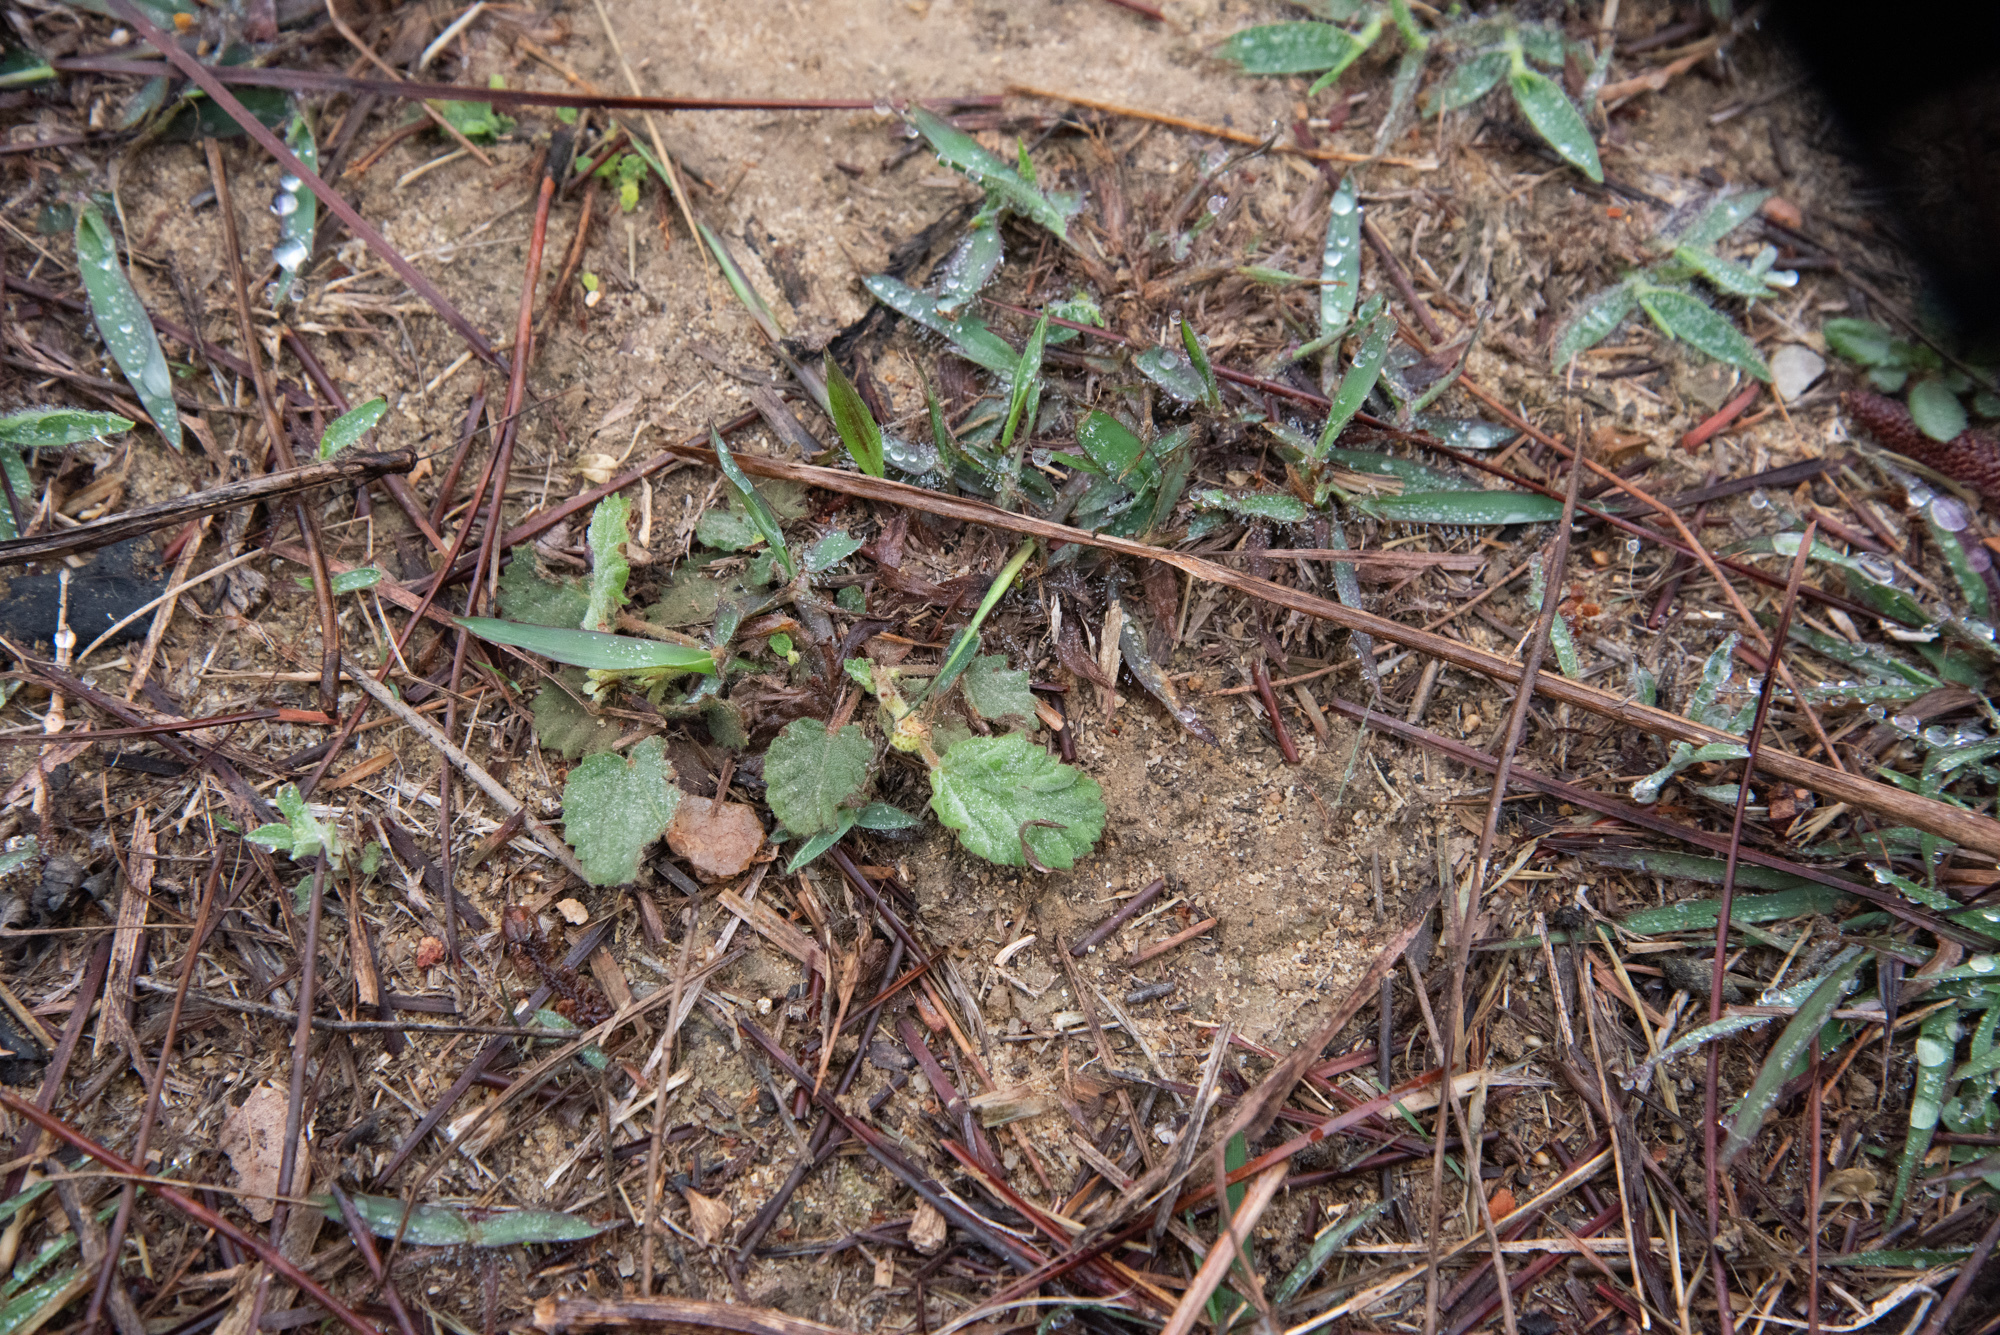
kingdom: Plantae
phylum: Tracheophyta
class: Magnoliopsida
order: Malvales
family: Malvaceae
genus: Waltheria
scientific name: Waltheria indica
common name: Leather-coat
